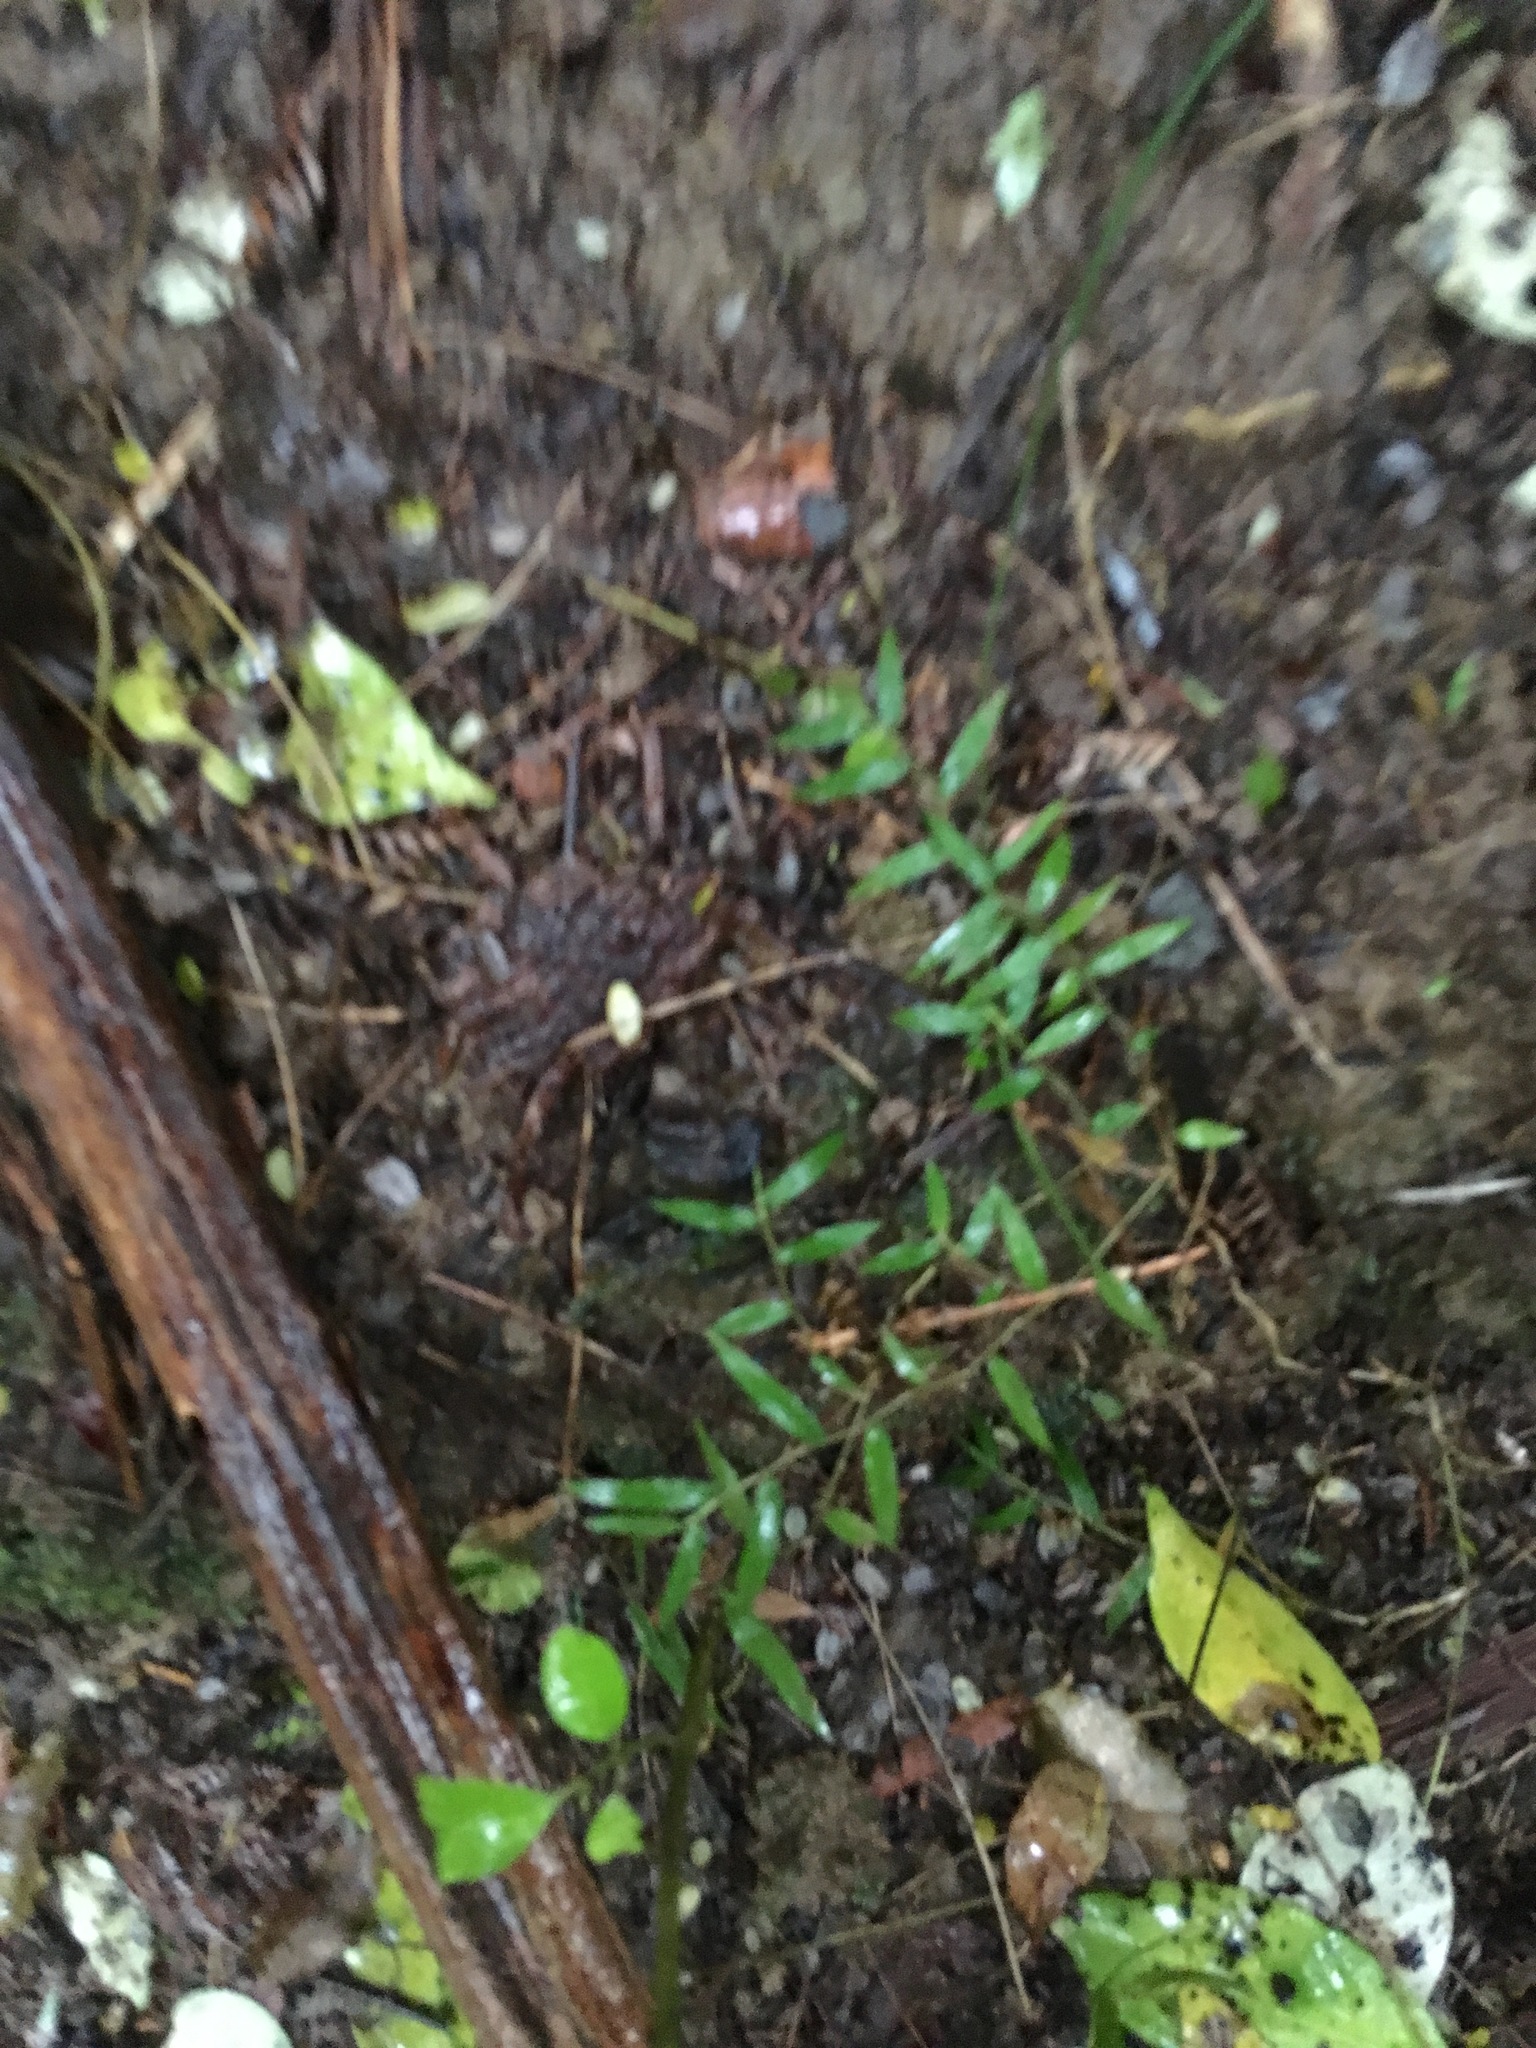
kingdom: Plantae
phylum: Tracheophyta
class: Liliopsida
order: Poales
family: Poaceae
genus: Oplismenus
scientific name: Oplismenus hirtellus
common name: Basketgrass
